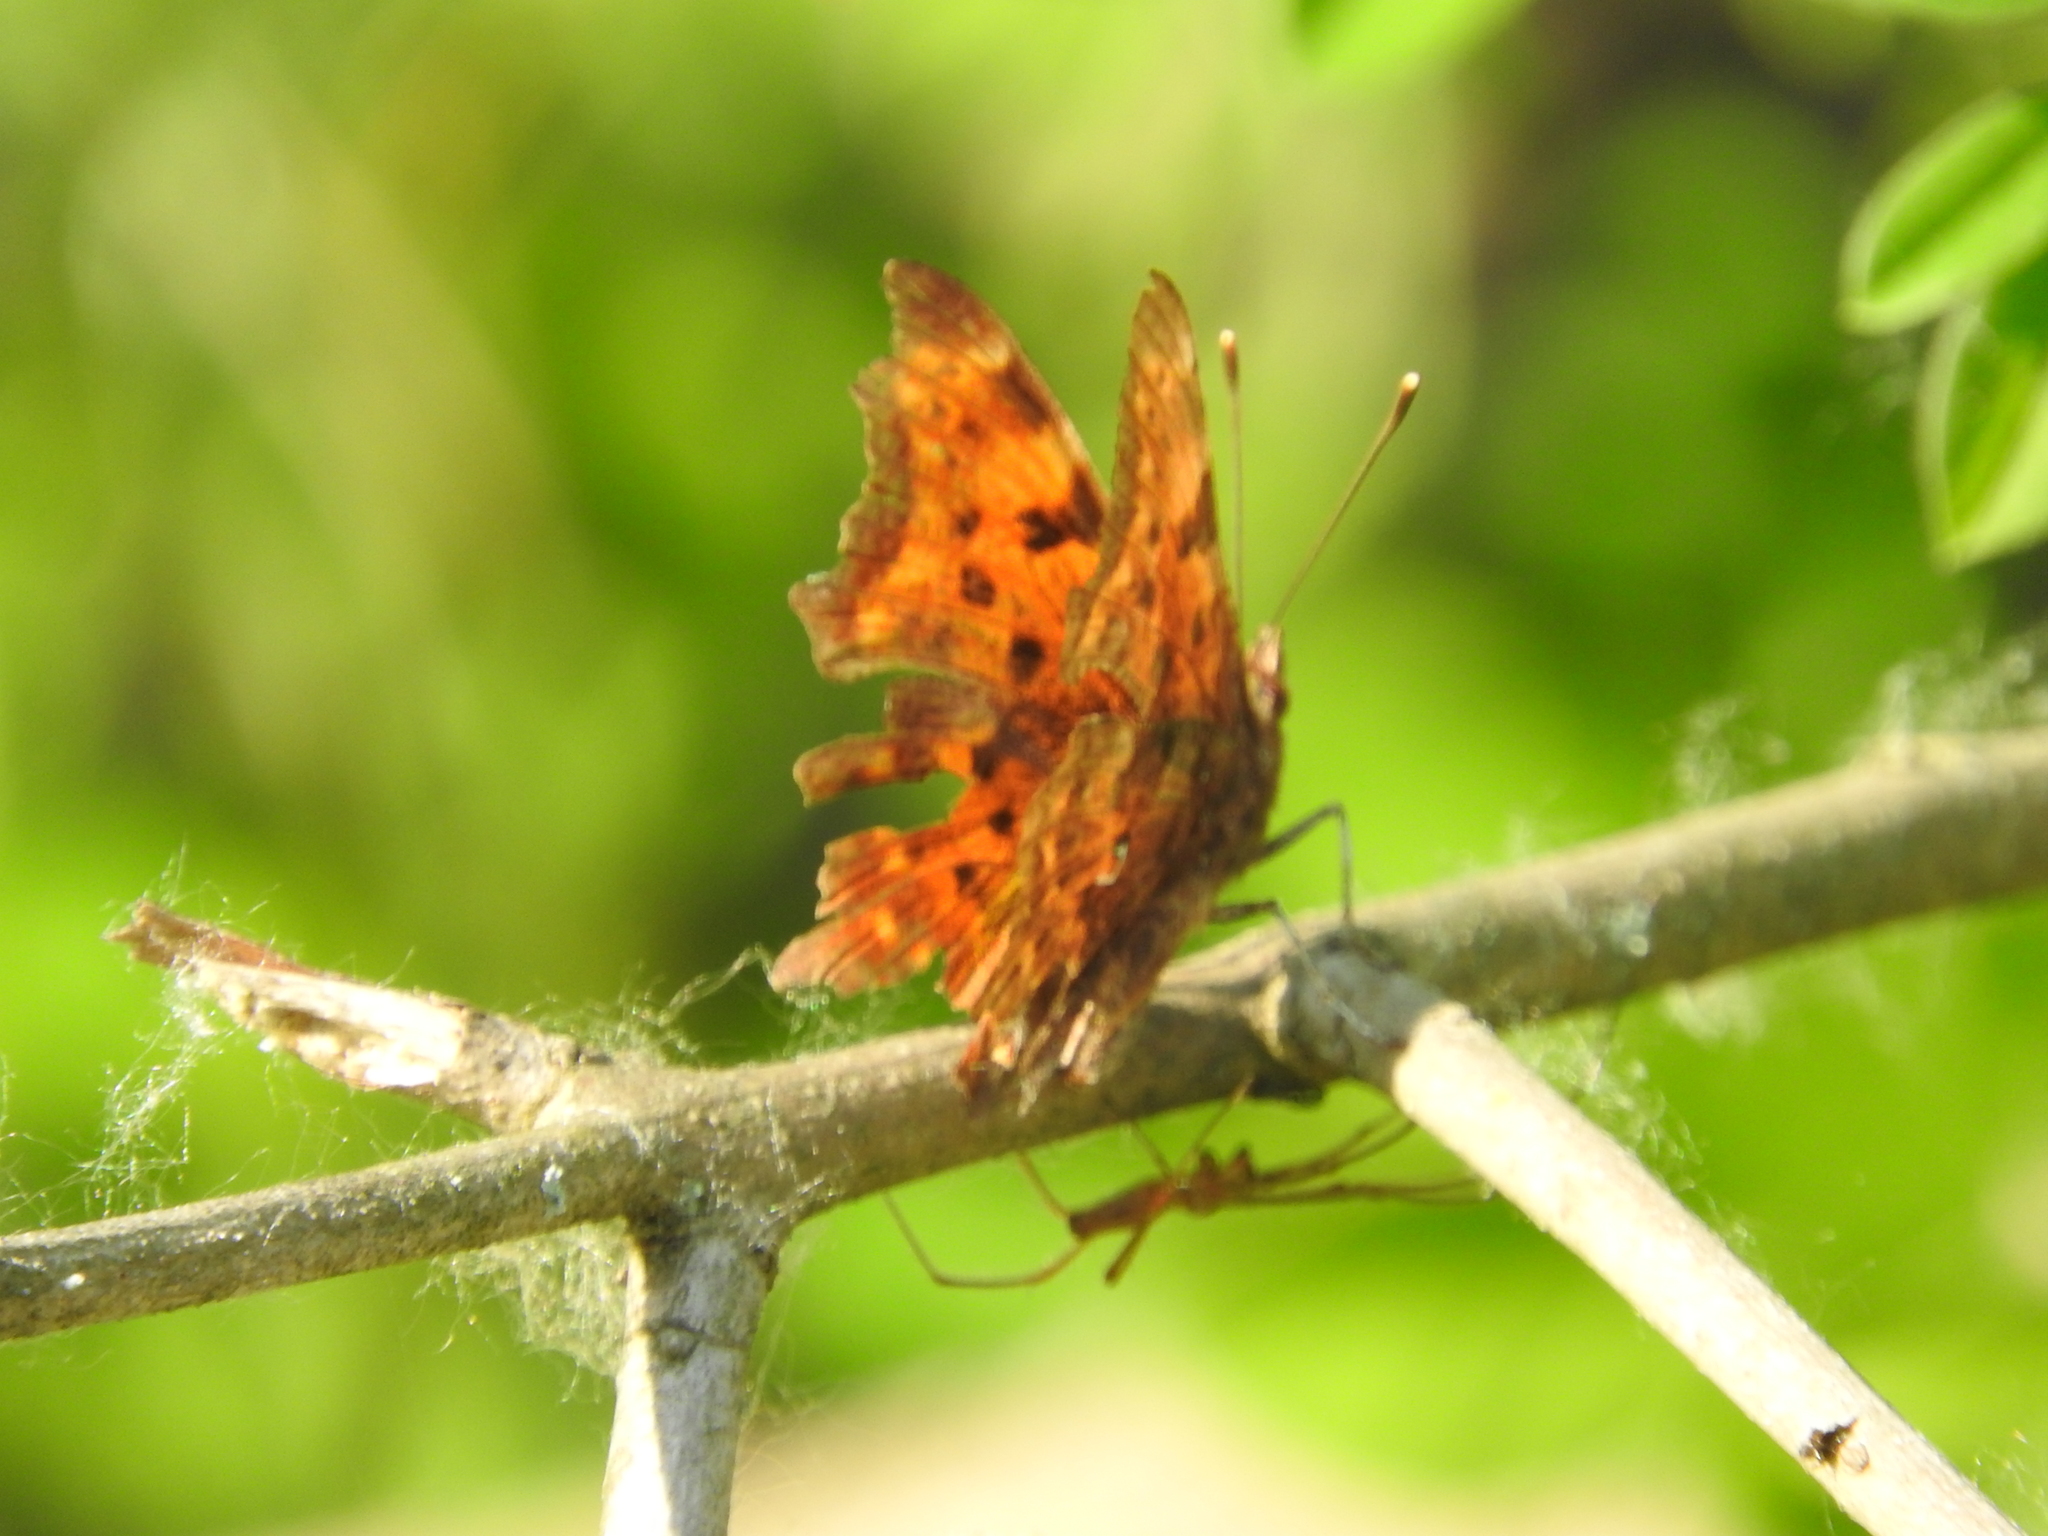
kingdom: Animalia
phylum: Arthropoda
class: Insecta
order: Lepidoptera
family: Nymphalidae
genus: Polygonia
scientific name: Polygonia c-album
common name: Comma
